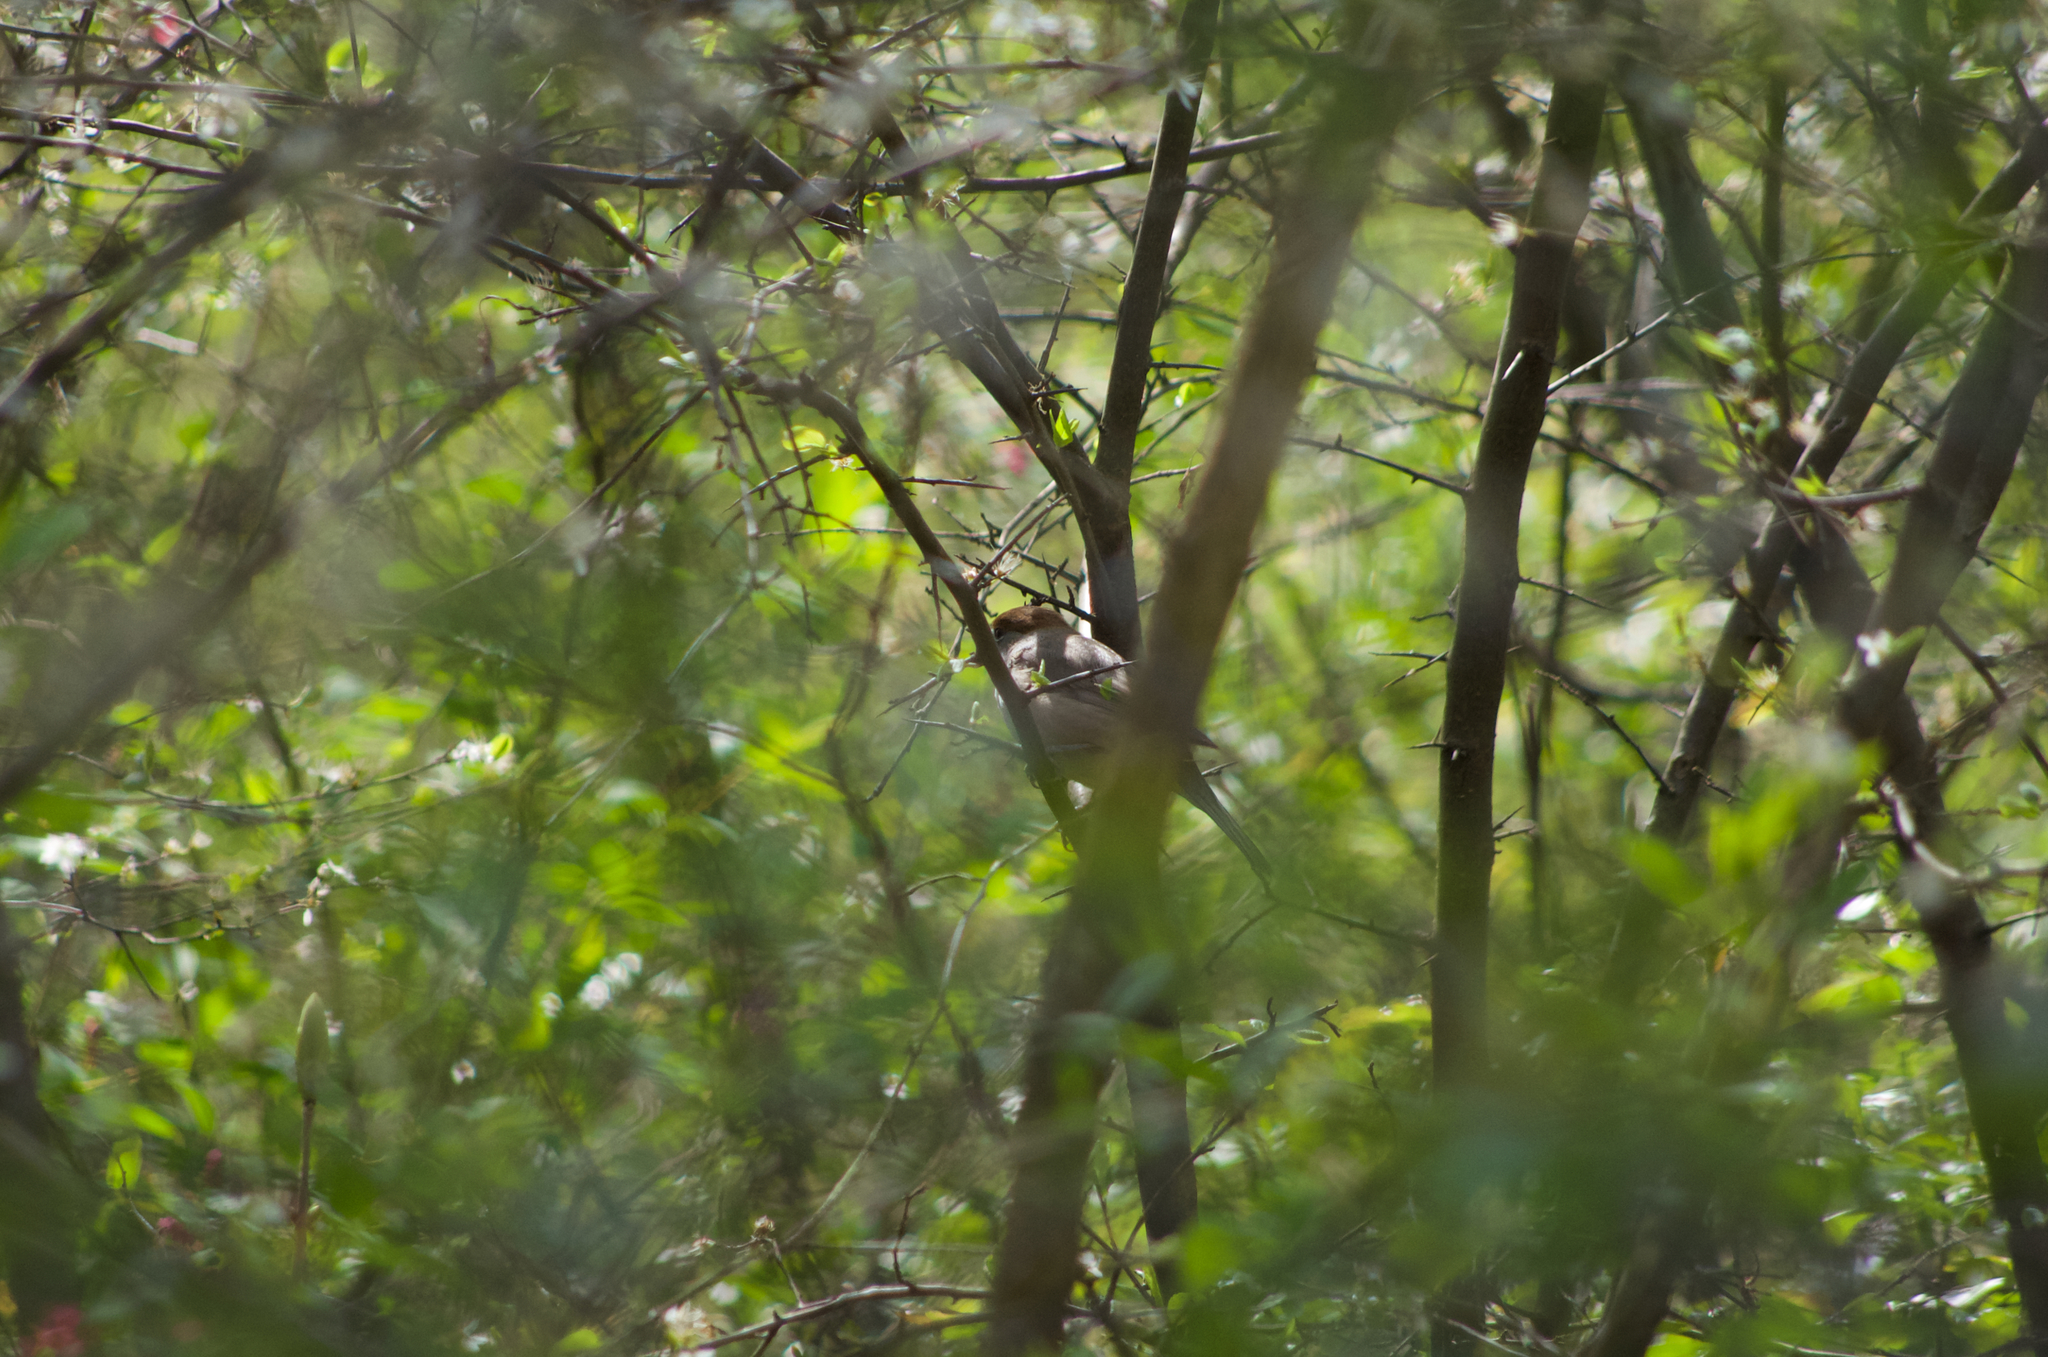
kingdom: Animalia
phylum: Chordata
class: Aves
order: Passeriformes
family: Sylviidae
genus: Sylvia
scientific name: Sylvia atricapilla
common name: Eurasian blackcap
